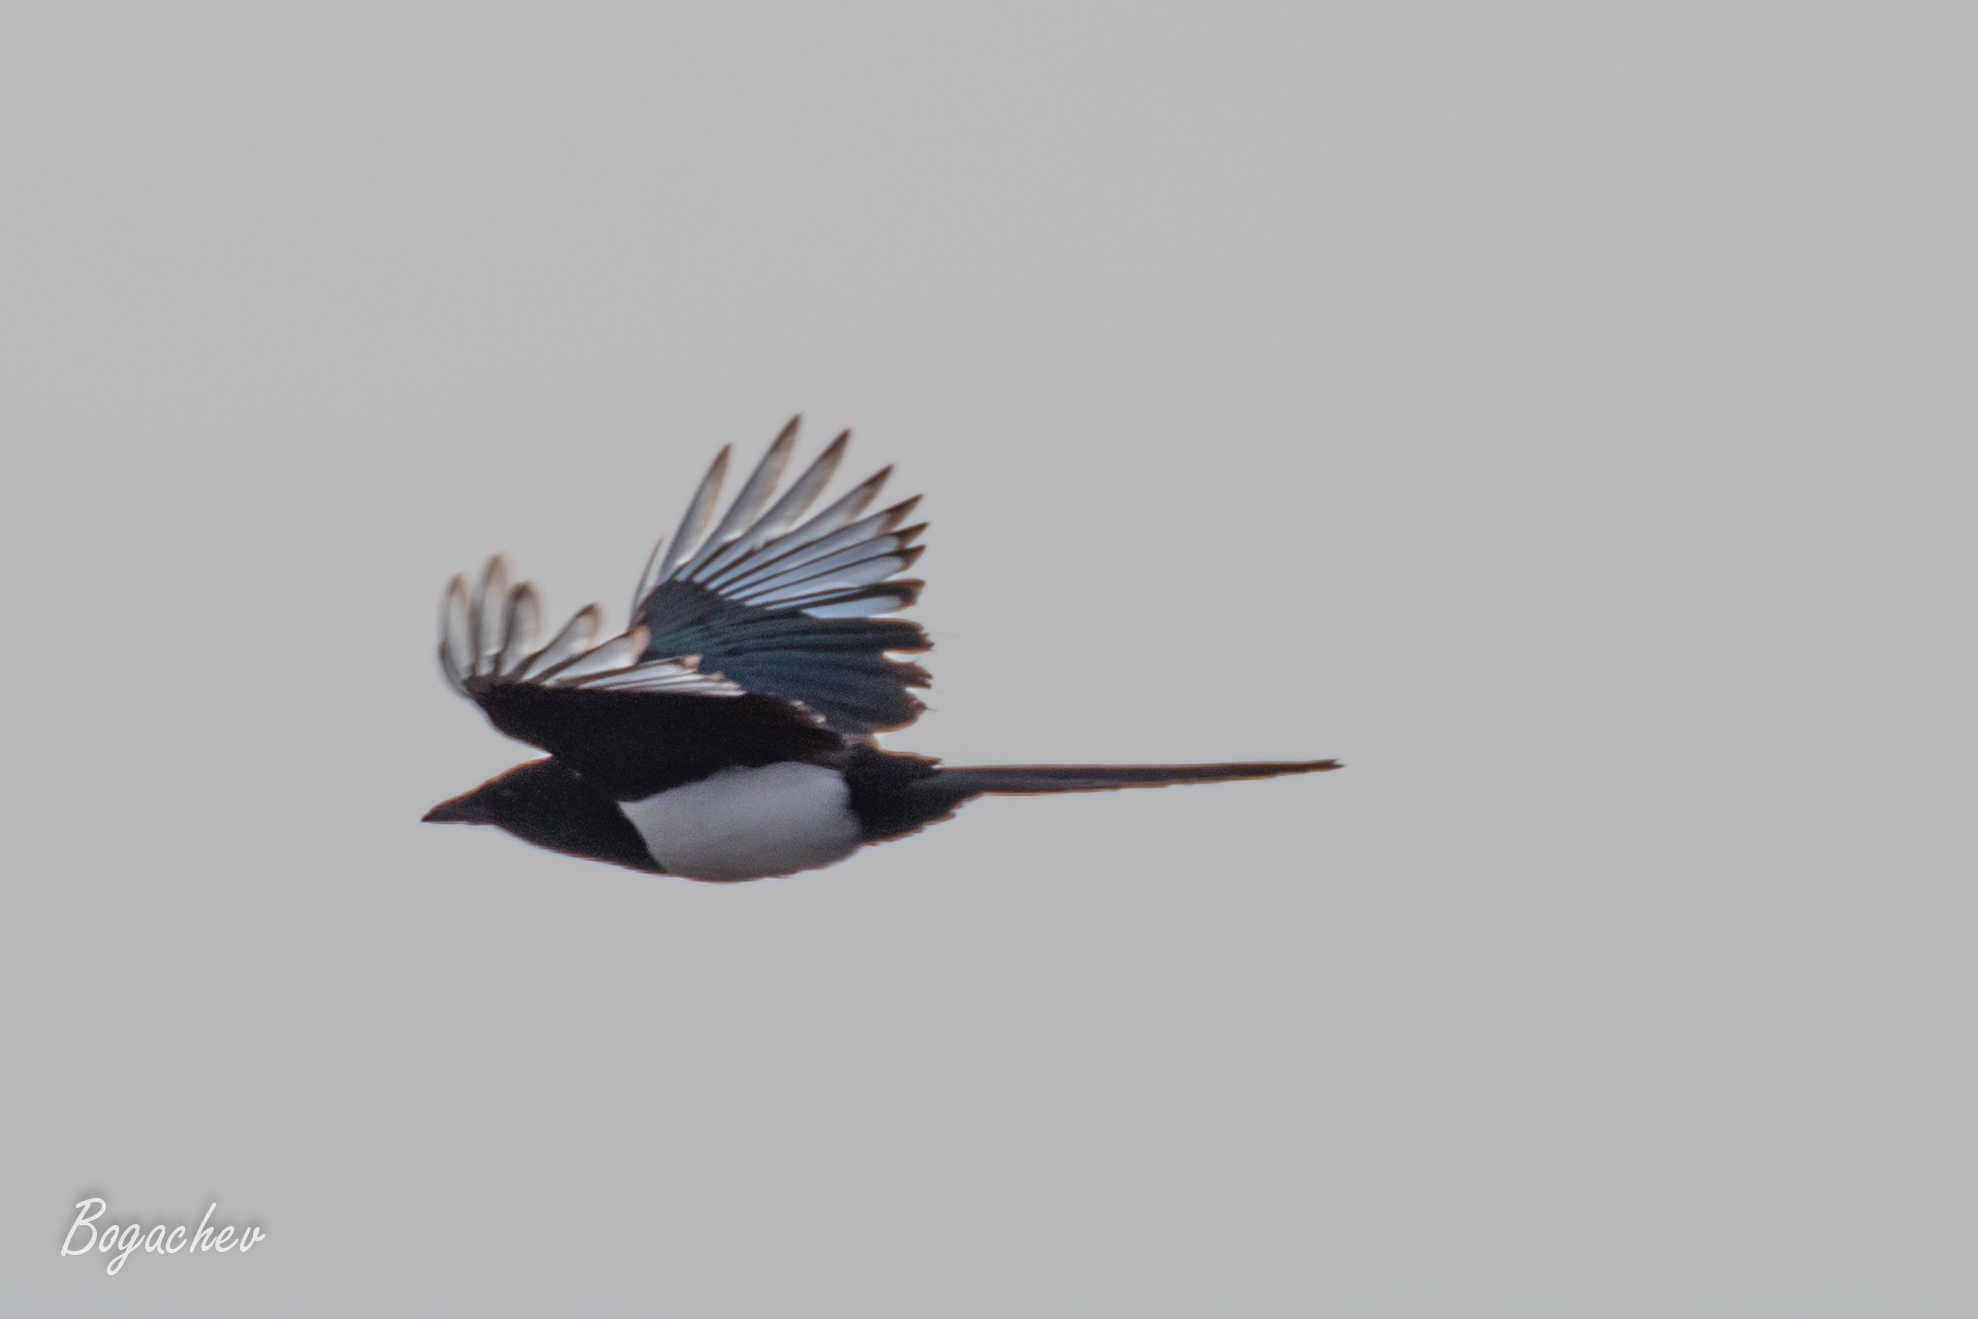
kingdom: Animalia
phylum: Chordata
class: Aves
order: Passeriformes
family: Corvidae
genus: Pica
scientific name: Pica pica
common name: Eurasian magpie
